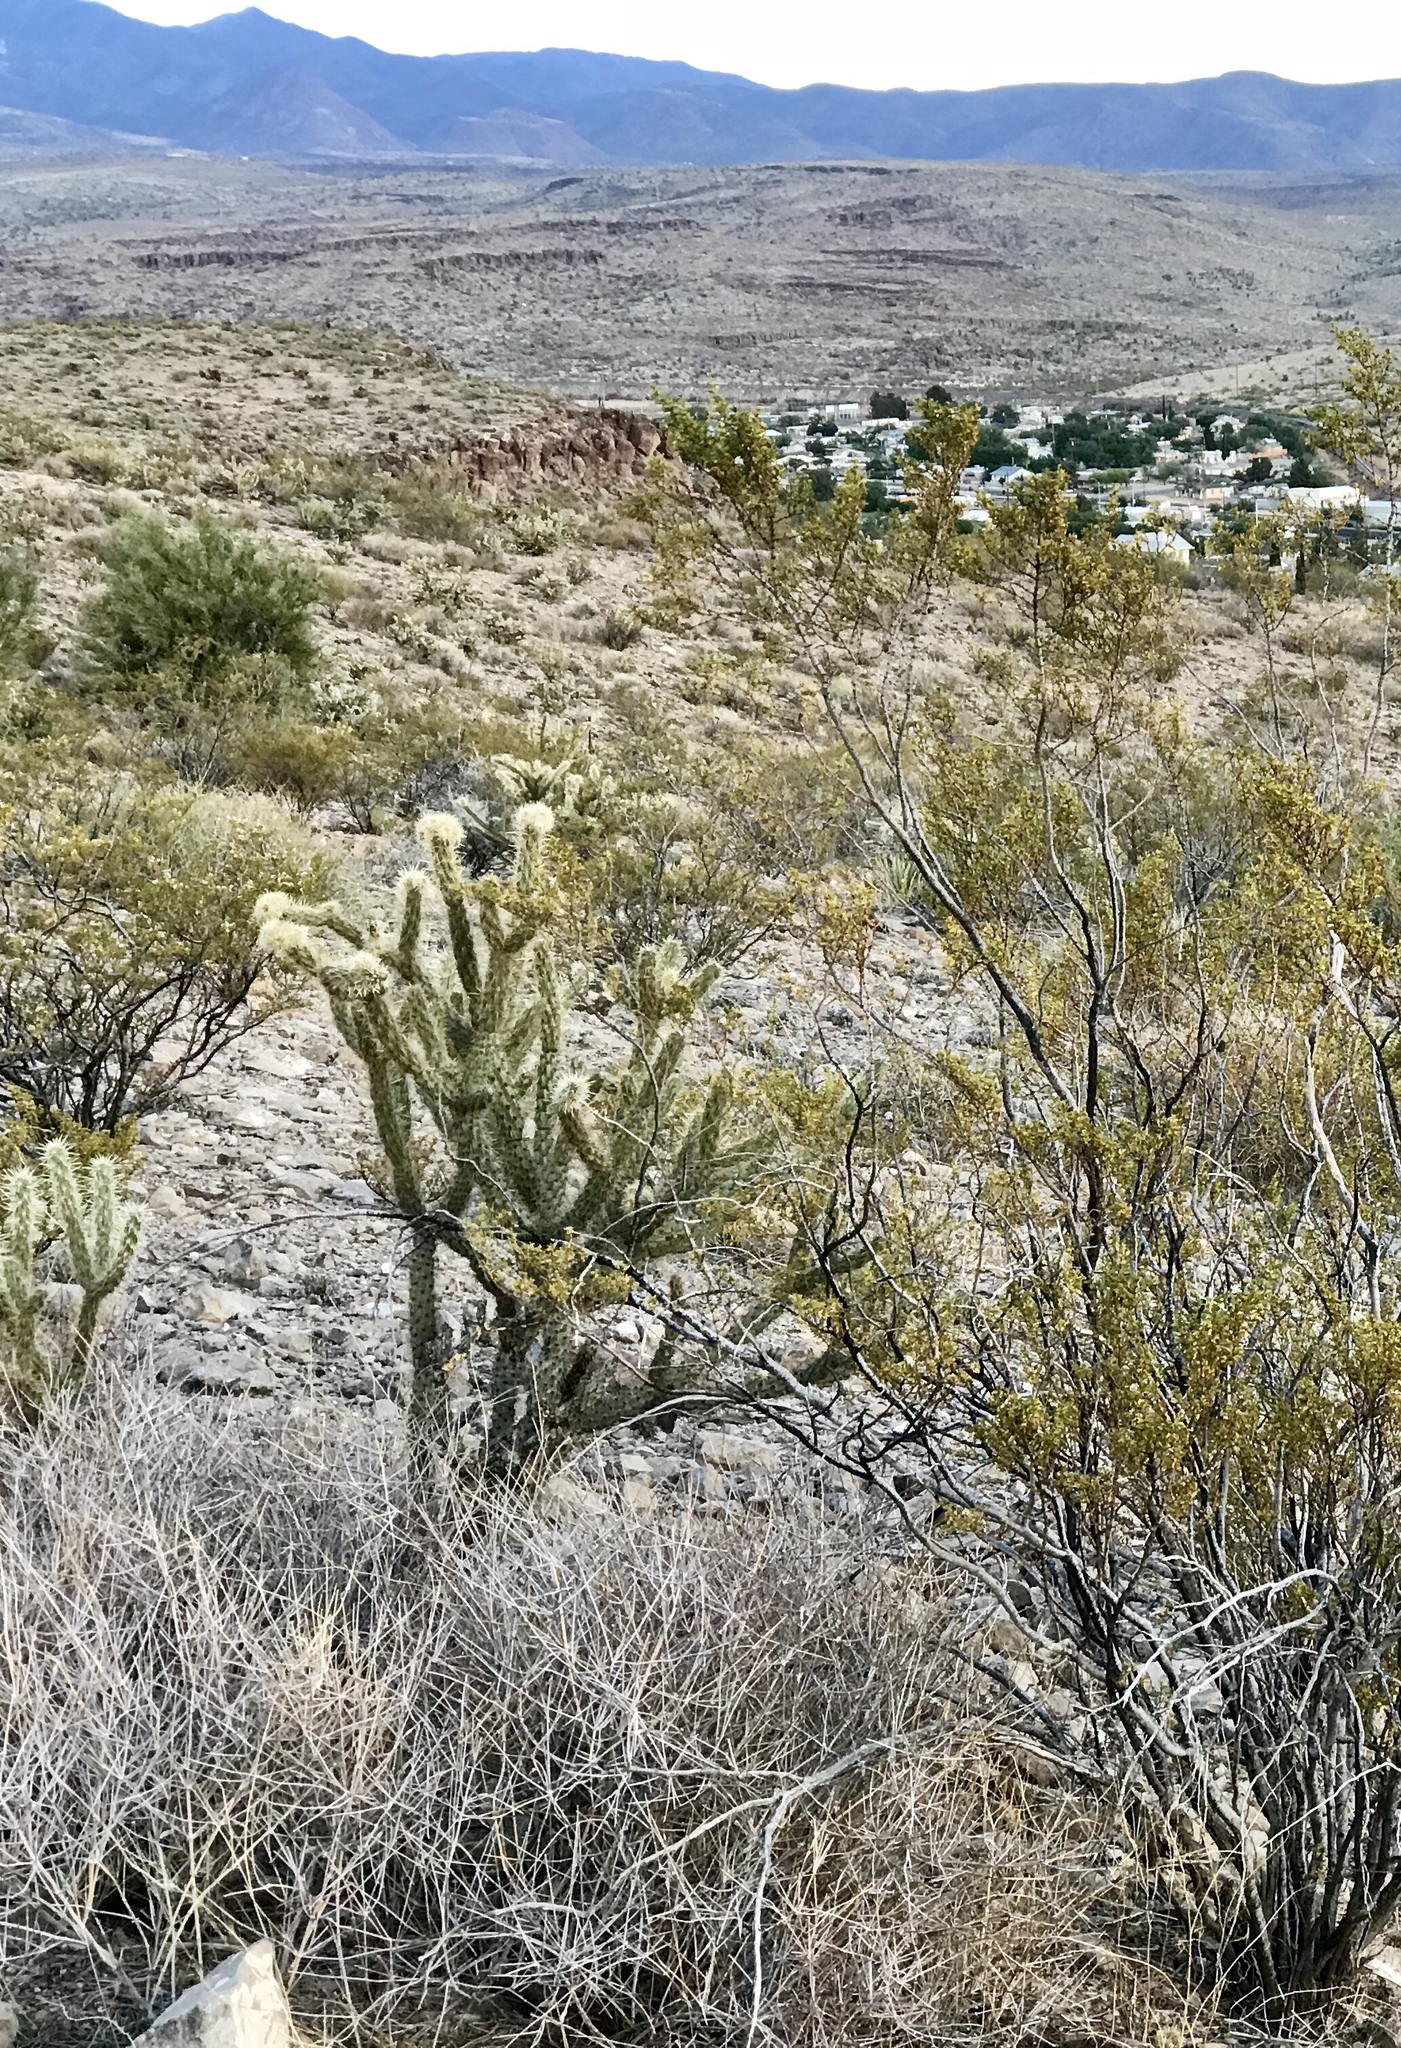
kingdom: Plantae
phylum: Tracheophyta
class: Magnoliopsida
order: Caryophyllales
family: Cactaceae
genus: Cylindropuntia
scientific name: Cylindropuntia echinocarpa
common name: Ground cholla
